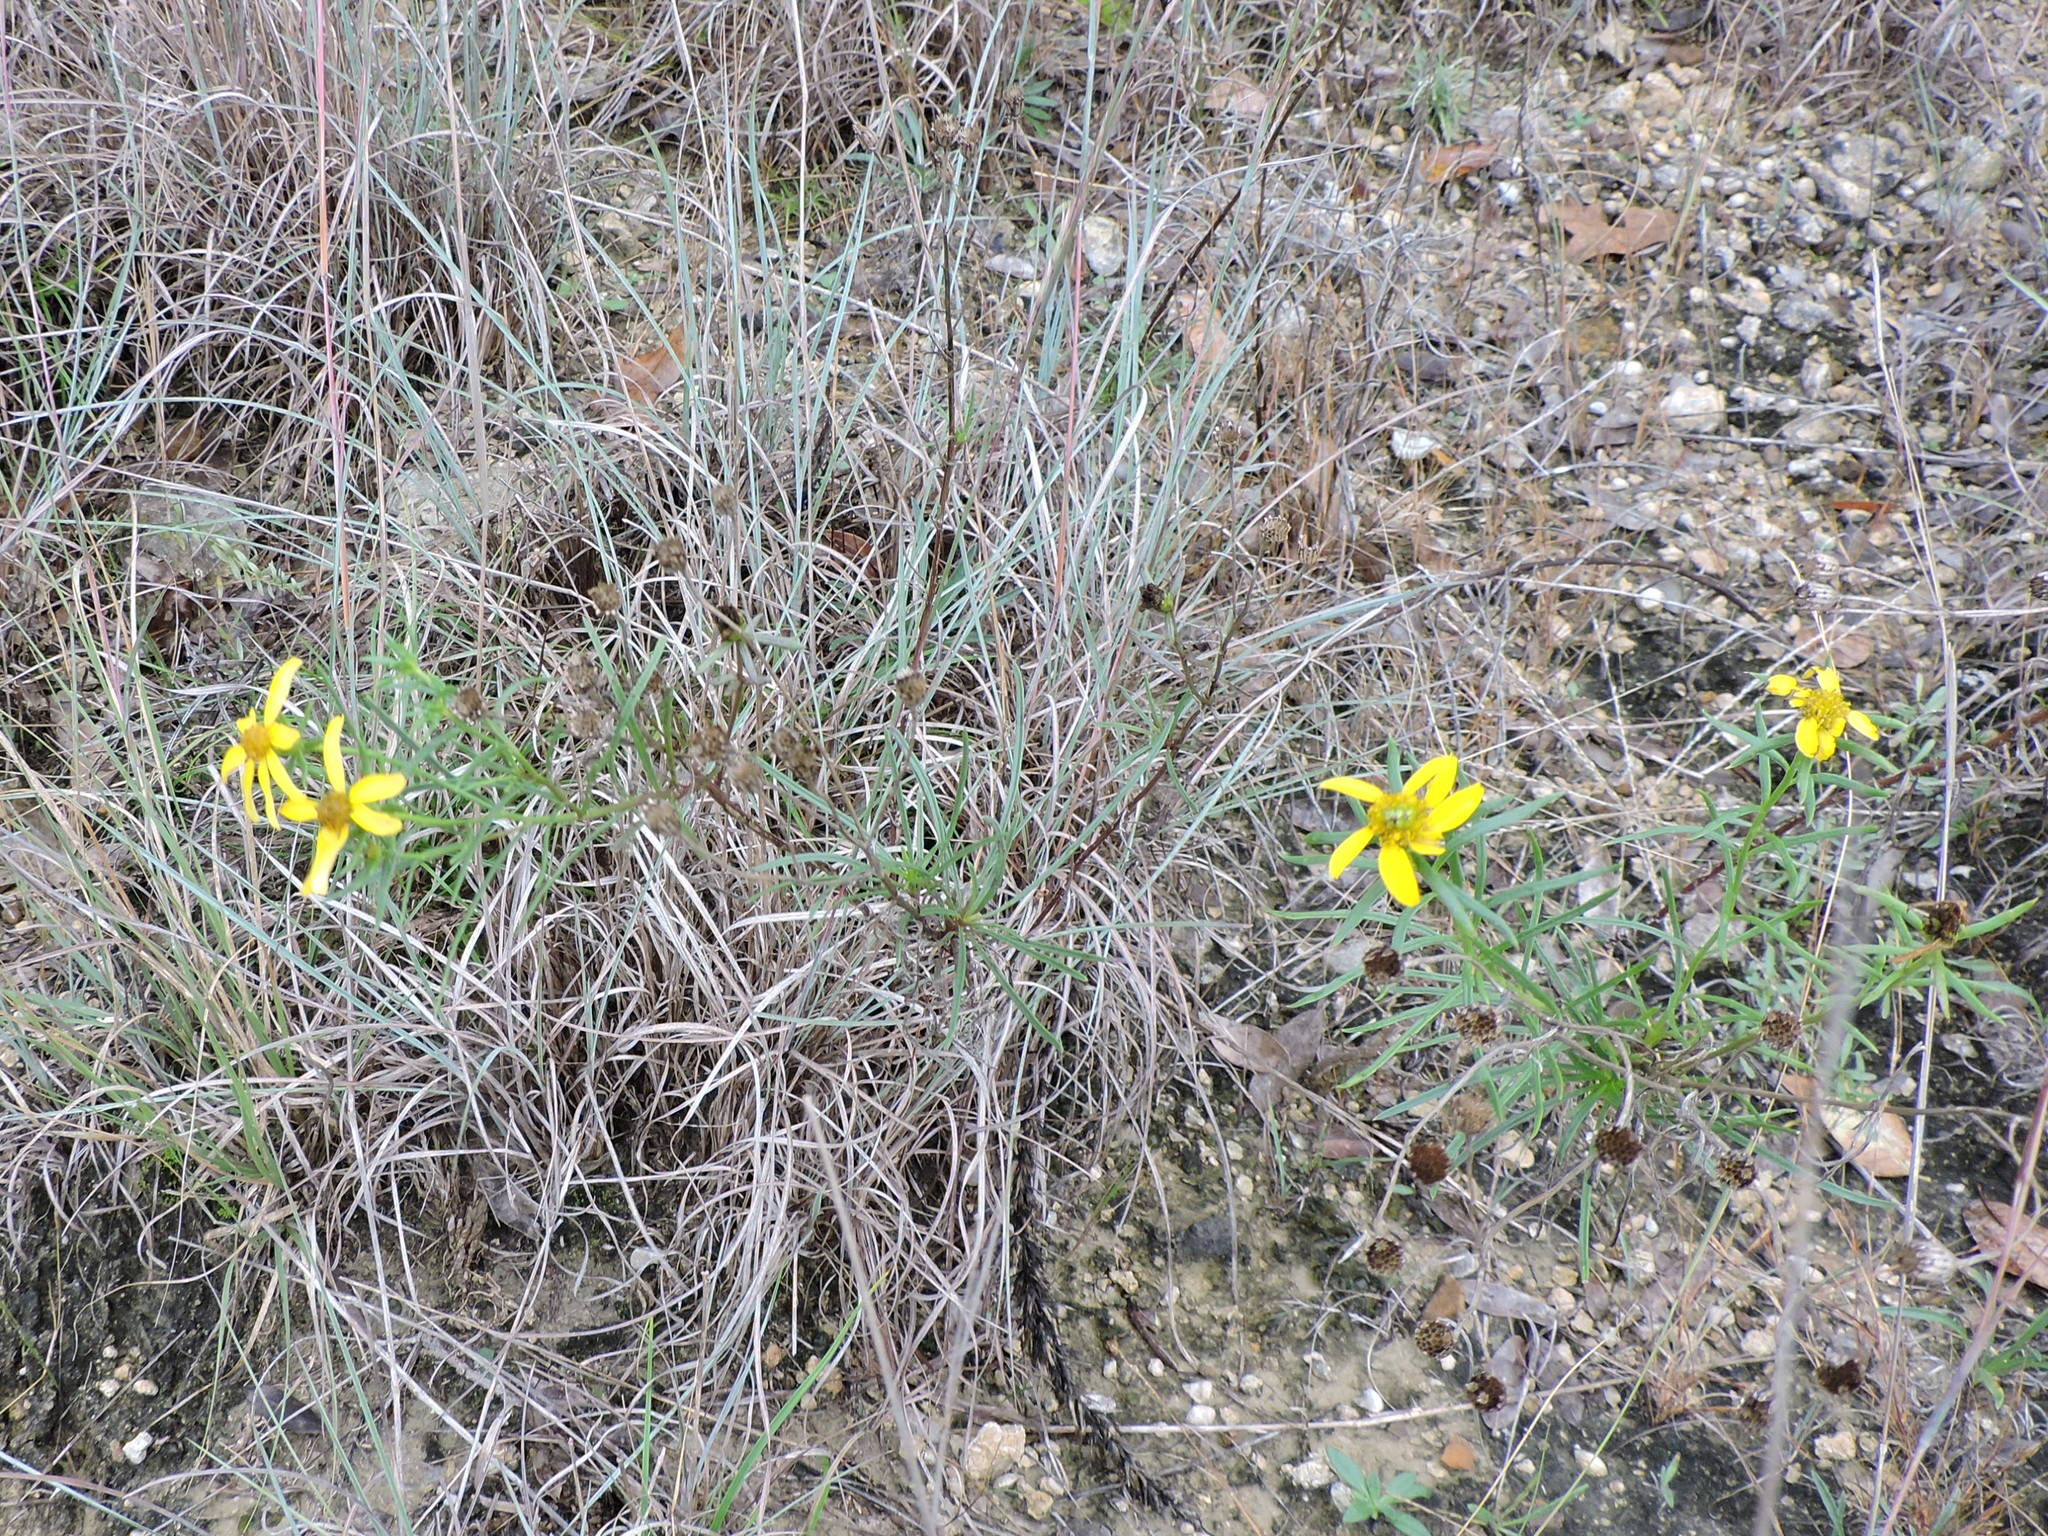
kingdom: Plantae
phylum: Tracheophyta
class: Magnoliopsida
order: Asterales
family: Asteraceae
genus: Dysodiopsis
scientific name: Dysodiopsis tagetoides
